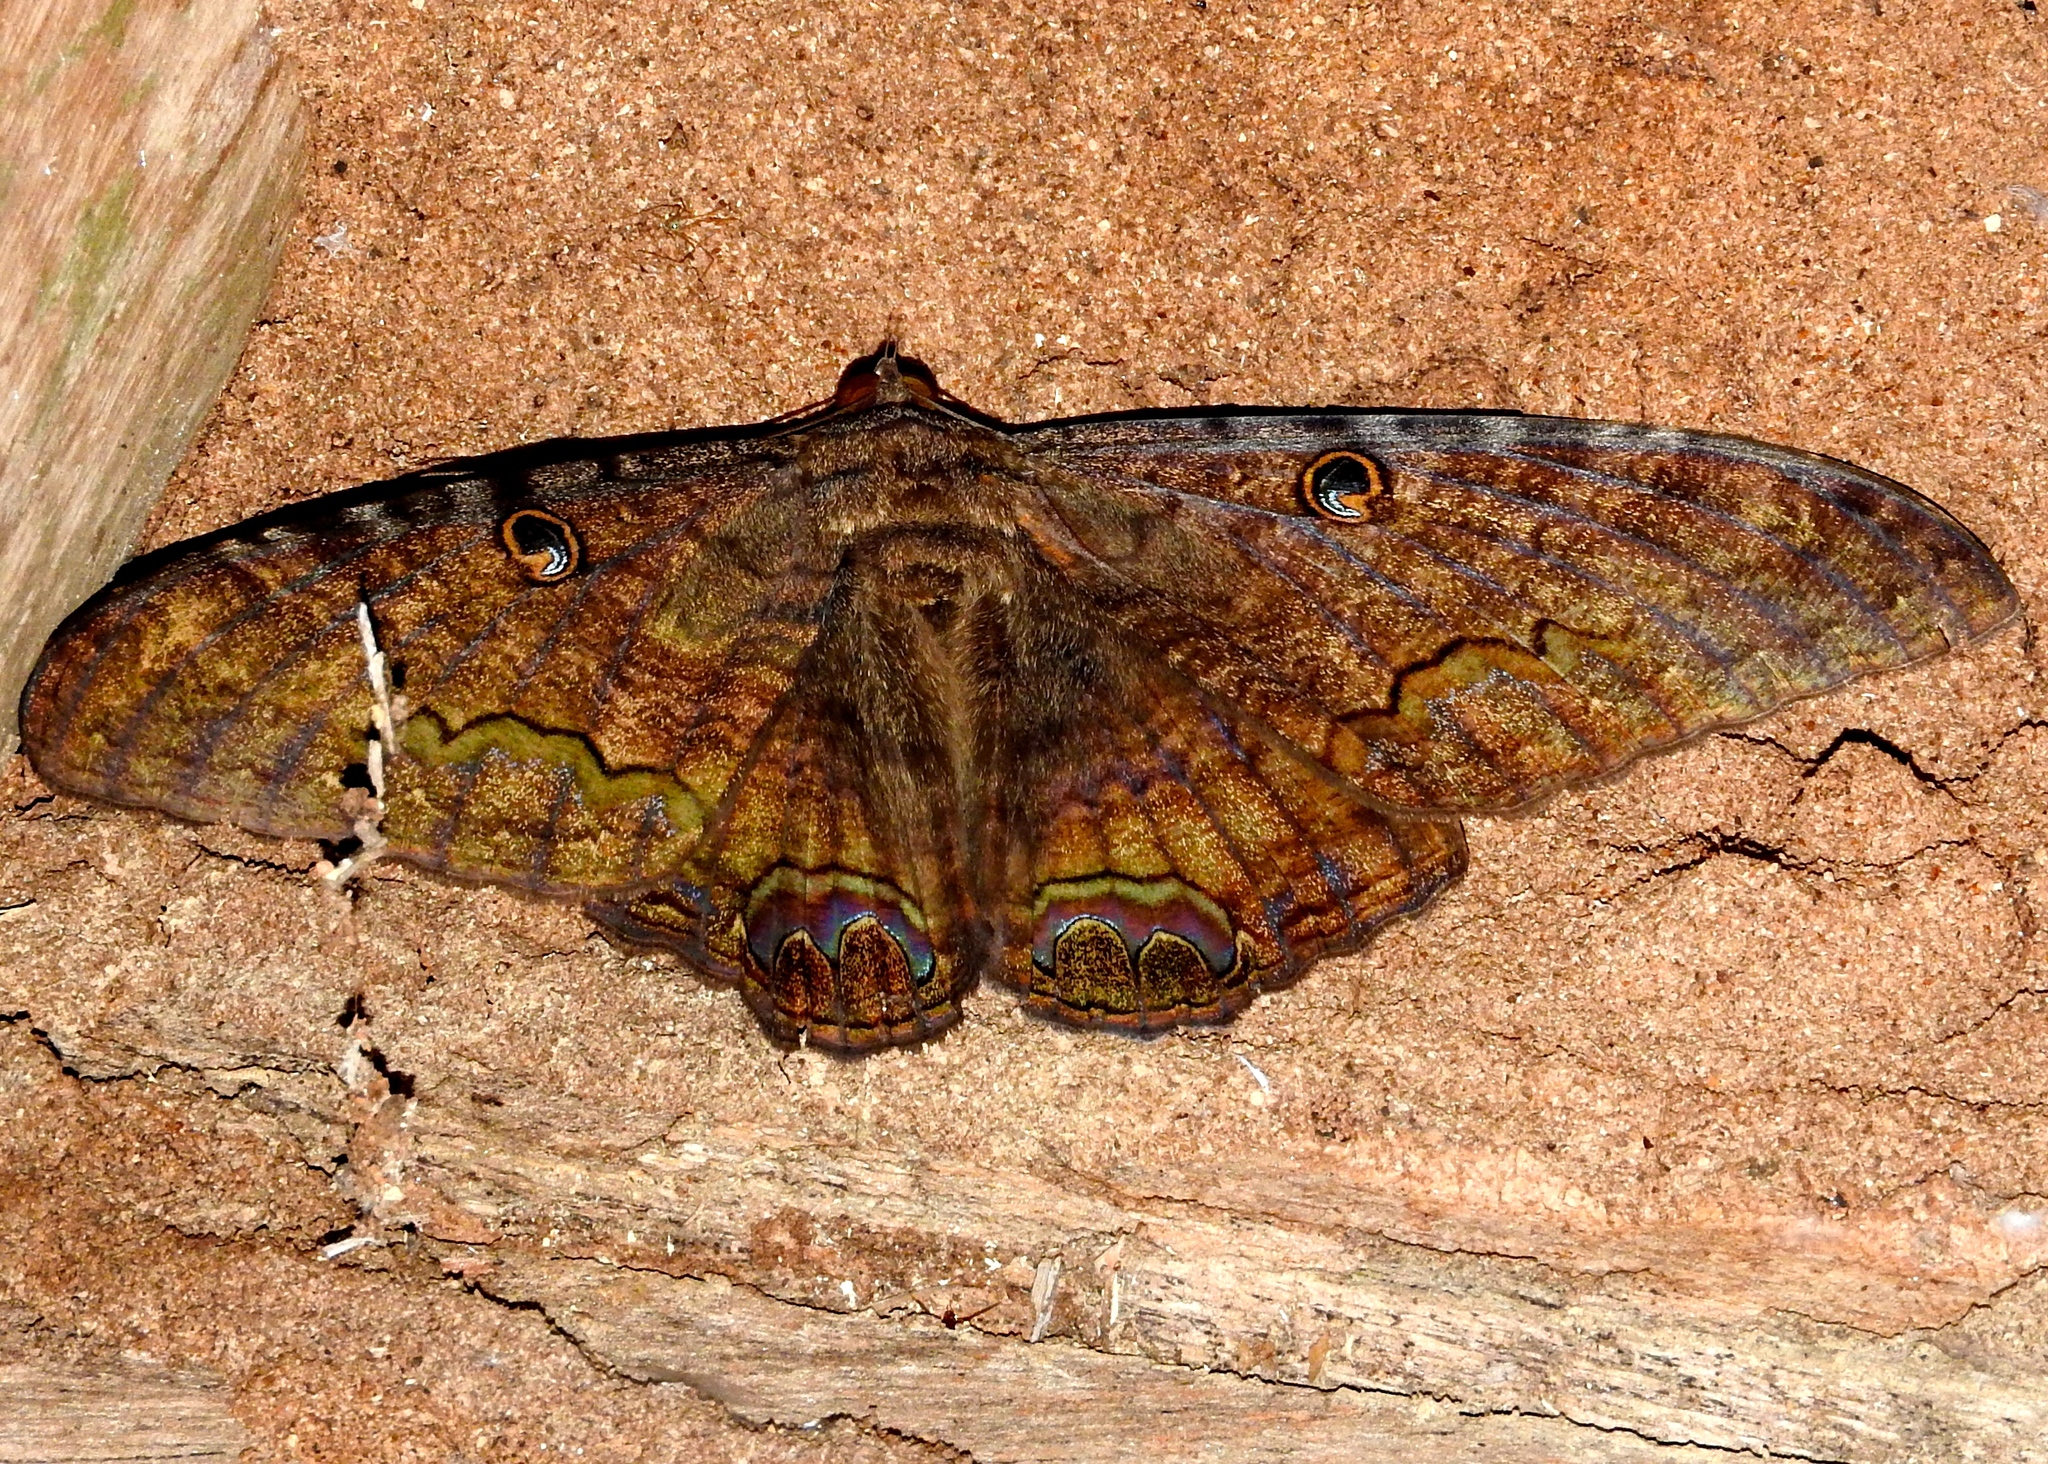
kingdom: Animalia
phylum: Arthropoda
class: Insecta
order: Lepidoptera
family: Erebidae
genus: Ascalapha
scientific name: Ascalapha odorata
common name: Black witch
